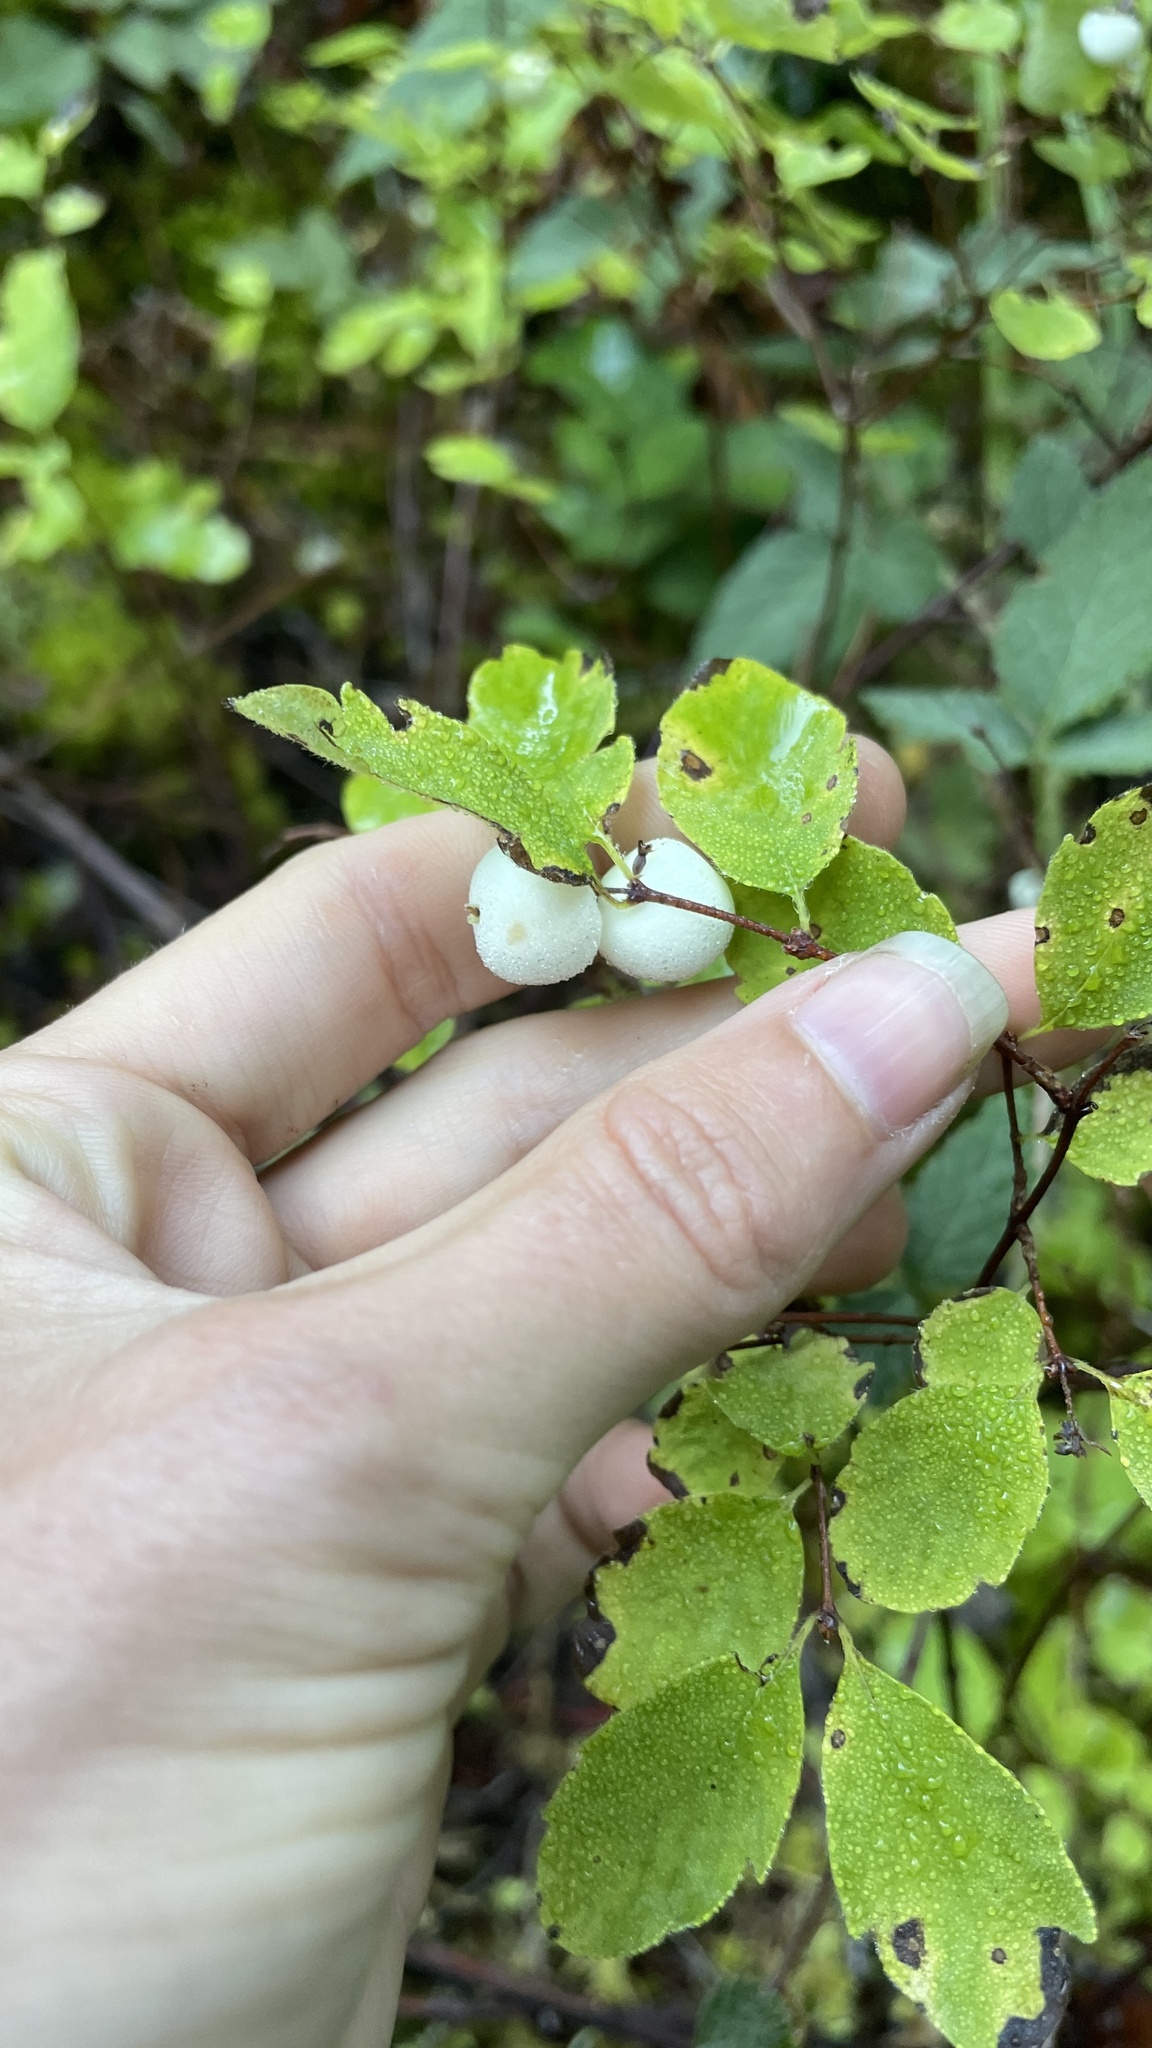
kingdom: Plantae
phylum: Tracheophyta
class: Magnoliopsida
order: Dipsacales
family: Caprifoliaceae
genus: Symphoricarpos
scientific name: Symphoricarpos albus
